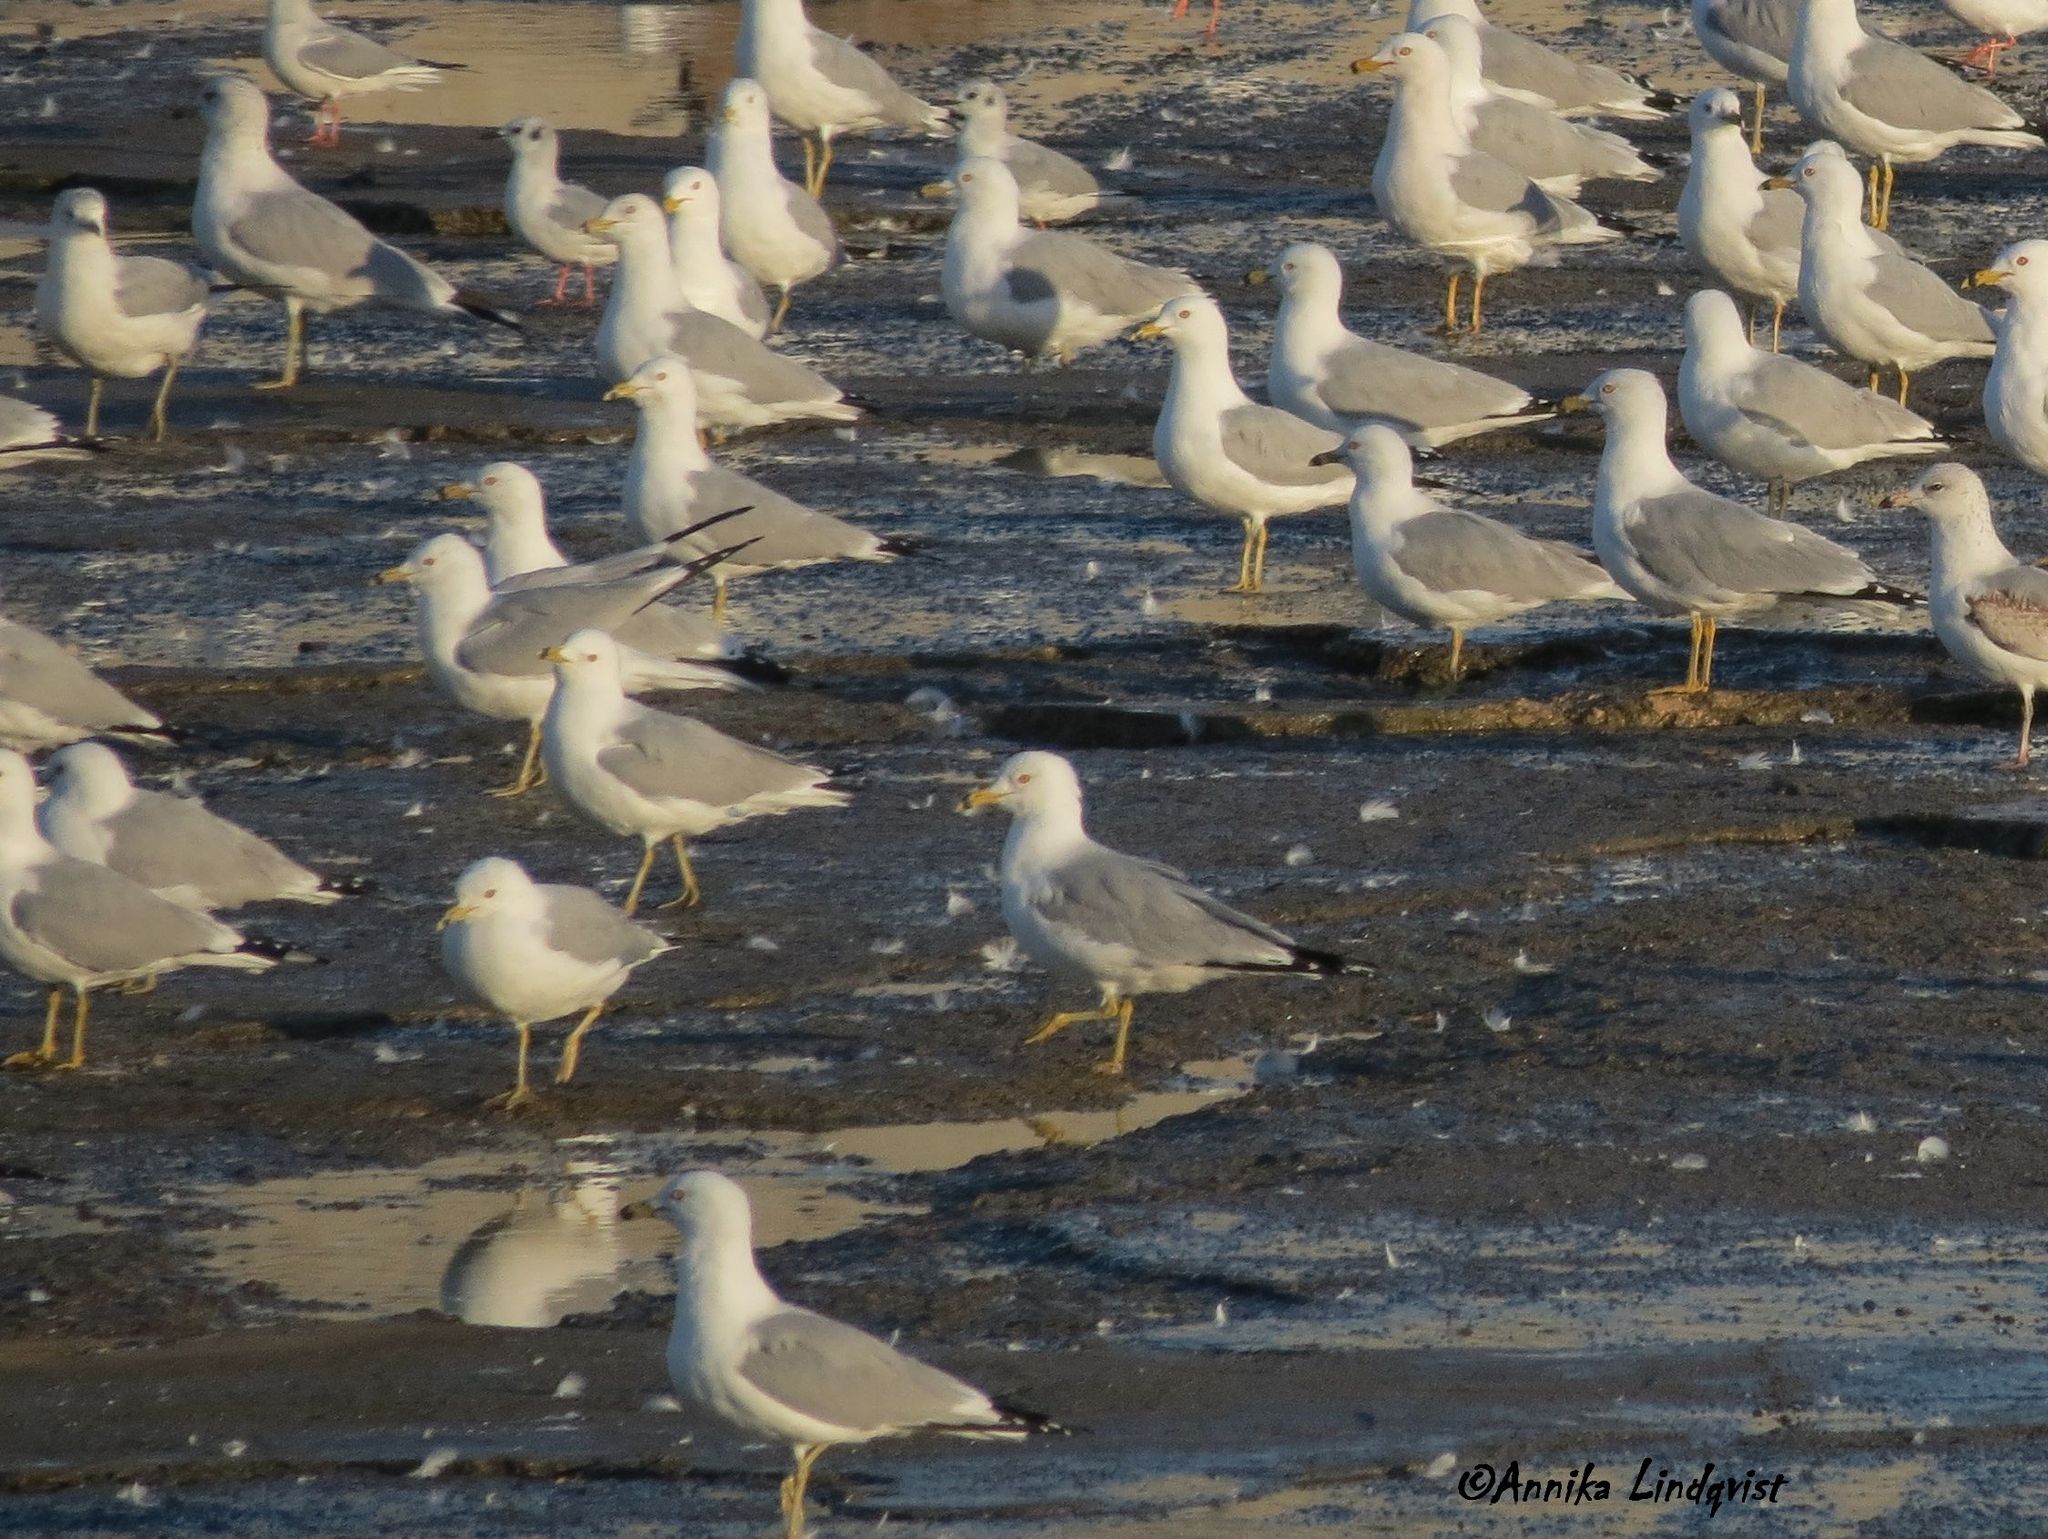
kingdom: Animalia
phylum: Chordata
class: Aves
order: Charadriiformes
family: Laridae
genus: Larus
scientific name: Larus delawarensis
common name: Ring-billed gull
